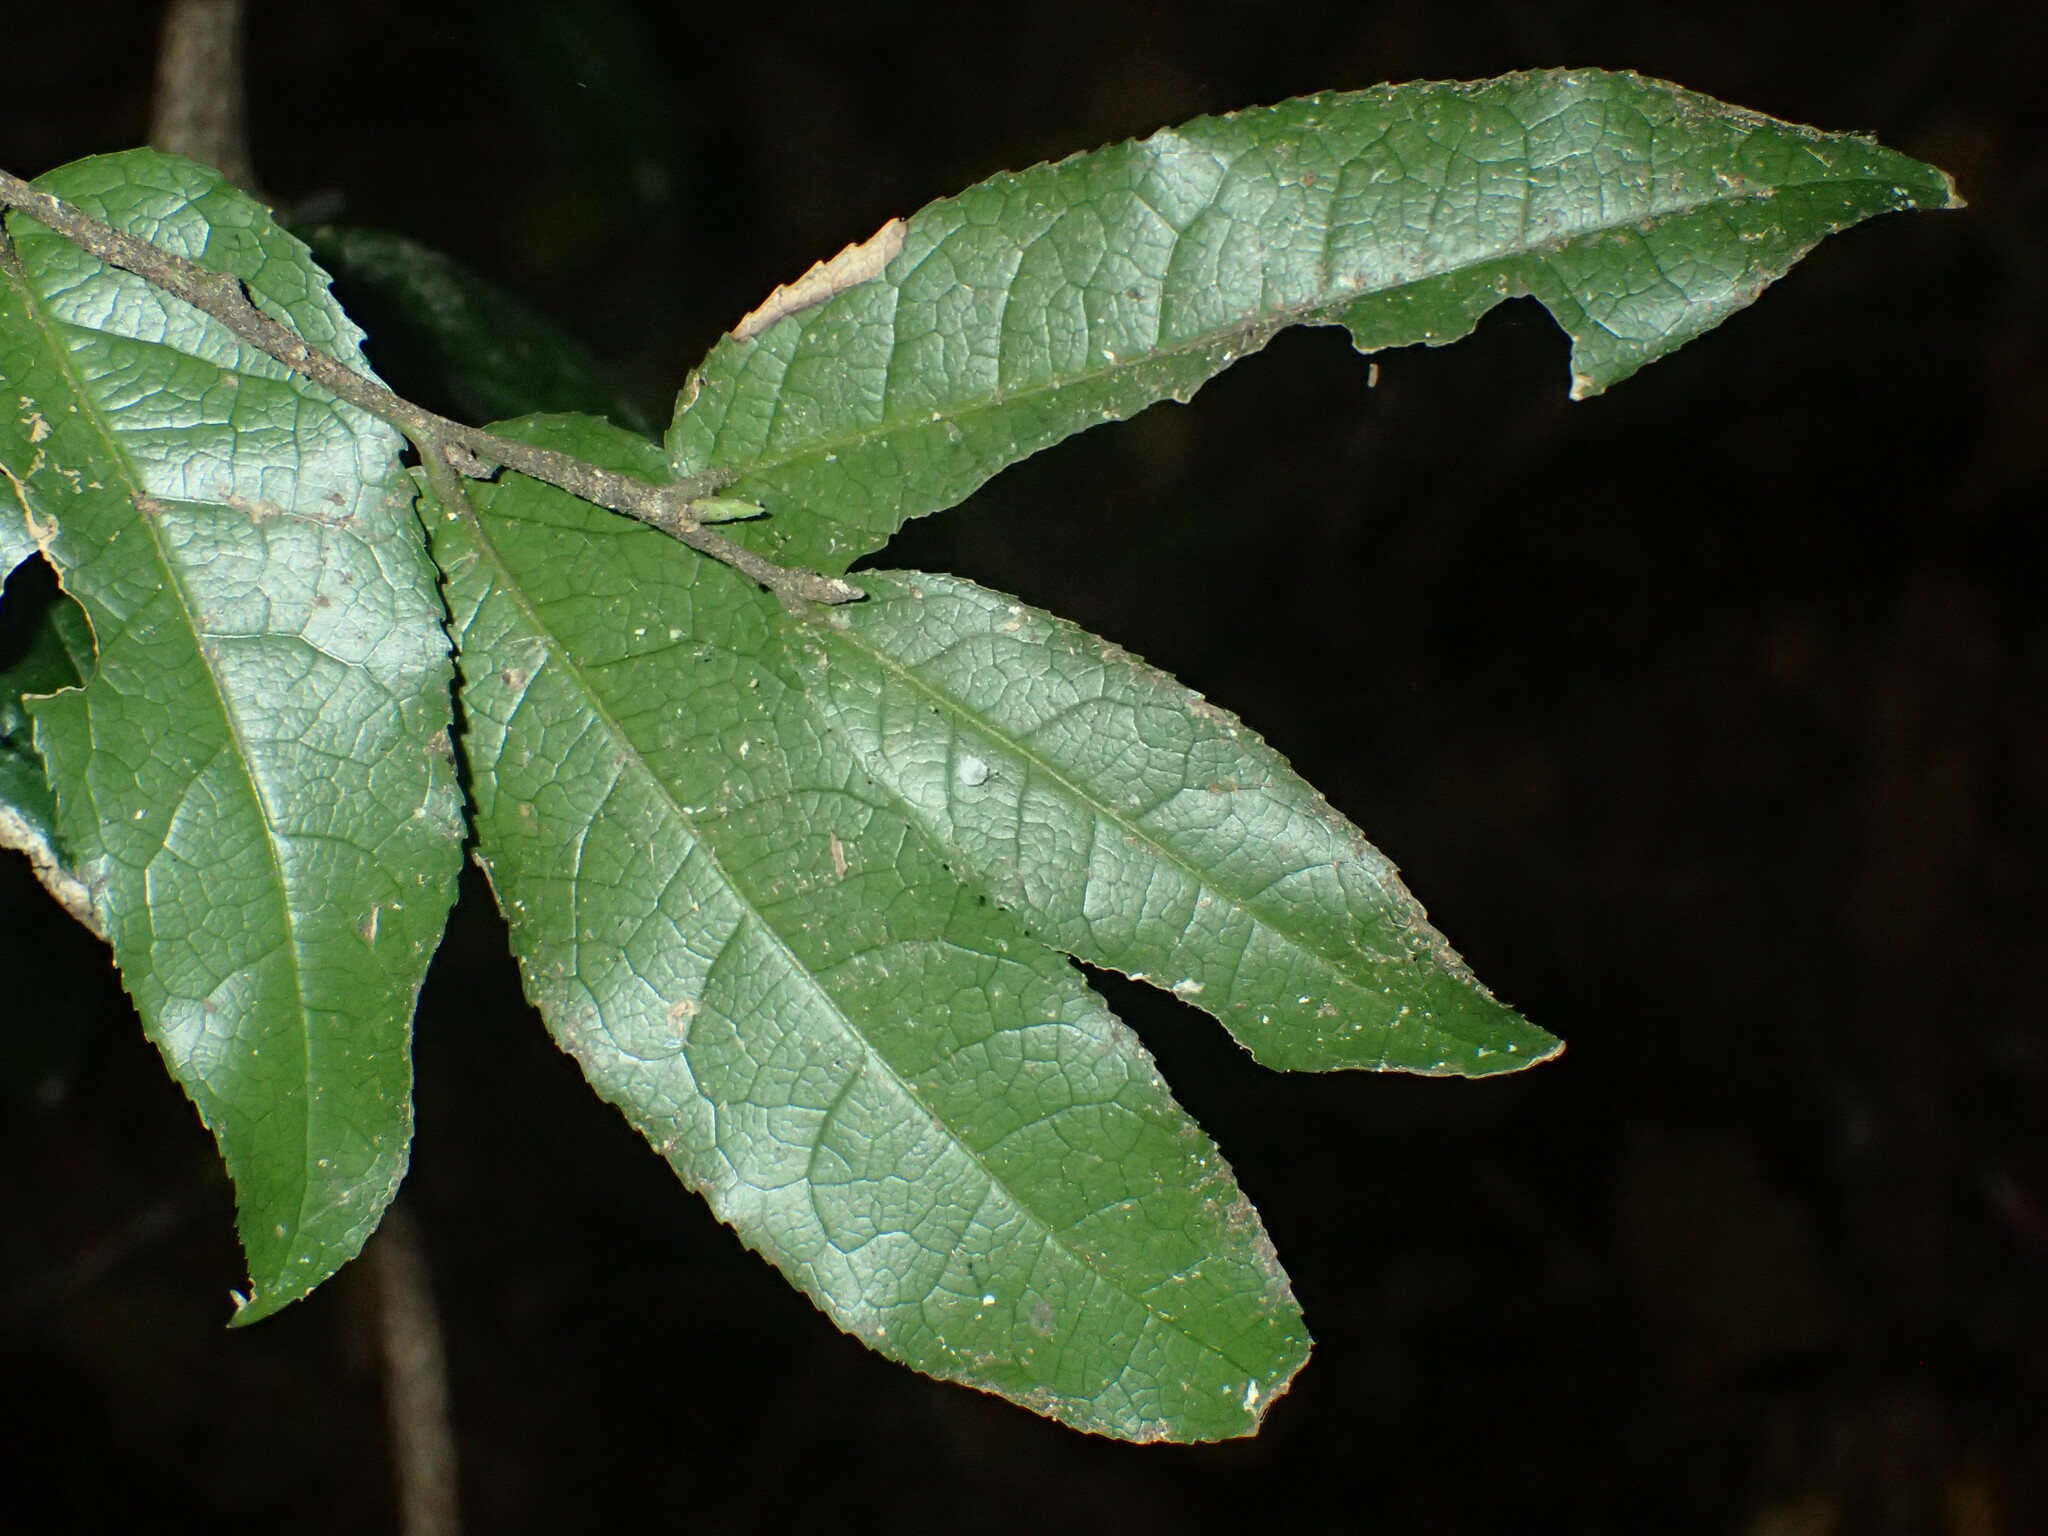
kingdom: Plantae
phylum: Tracheophyta
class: Magnoliopsida
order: Malpighiales
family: Putranjivaceae
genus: Drypetes
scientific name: Drypetes arguta
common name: Water ironplum
